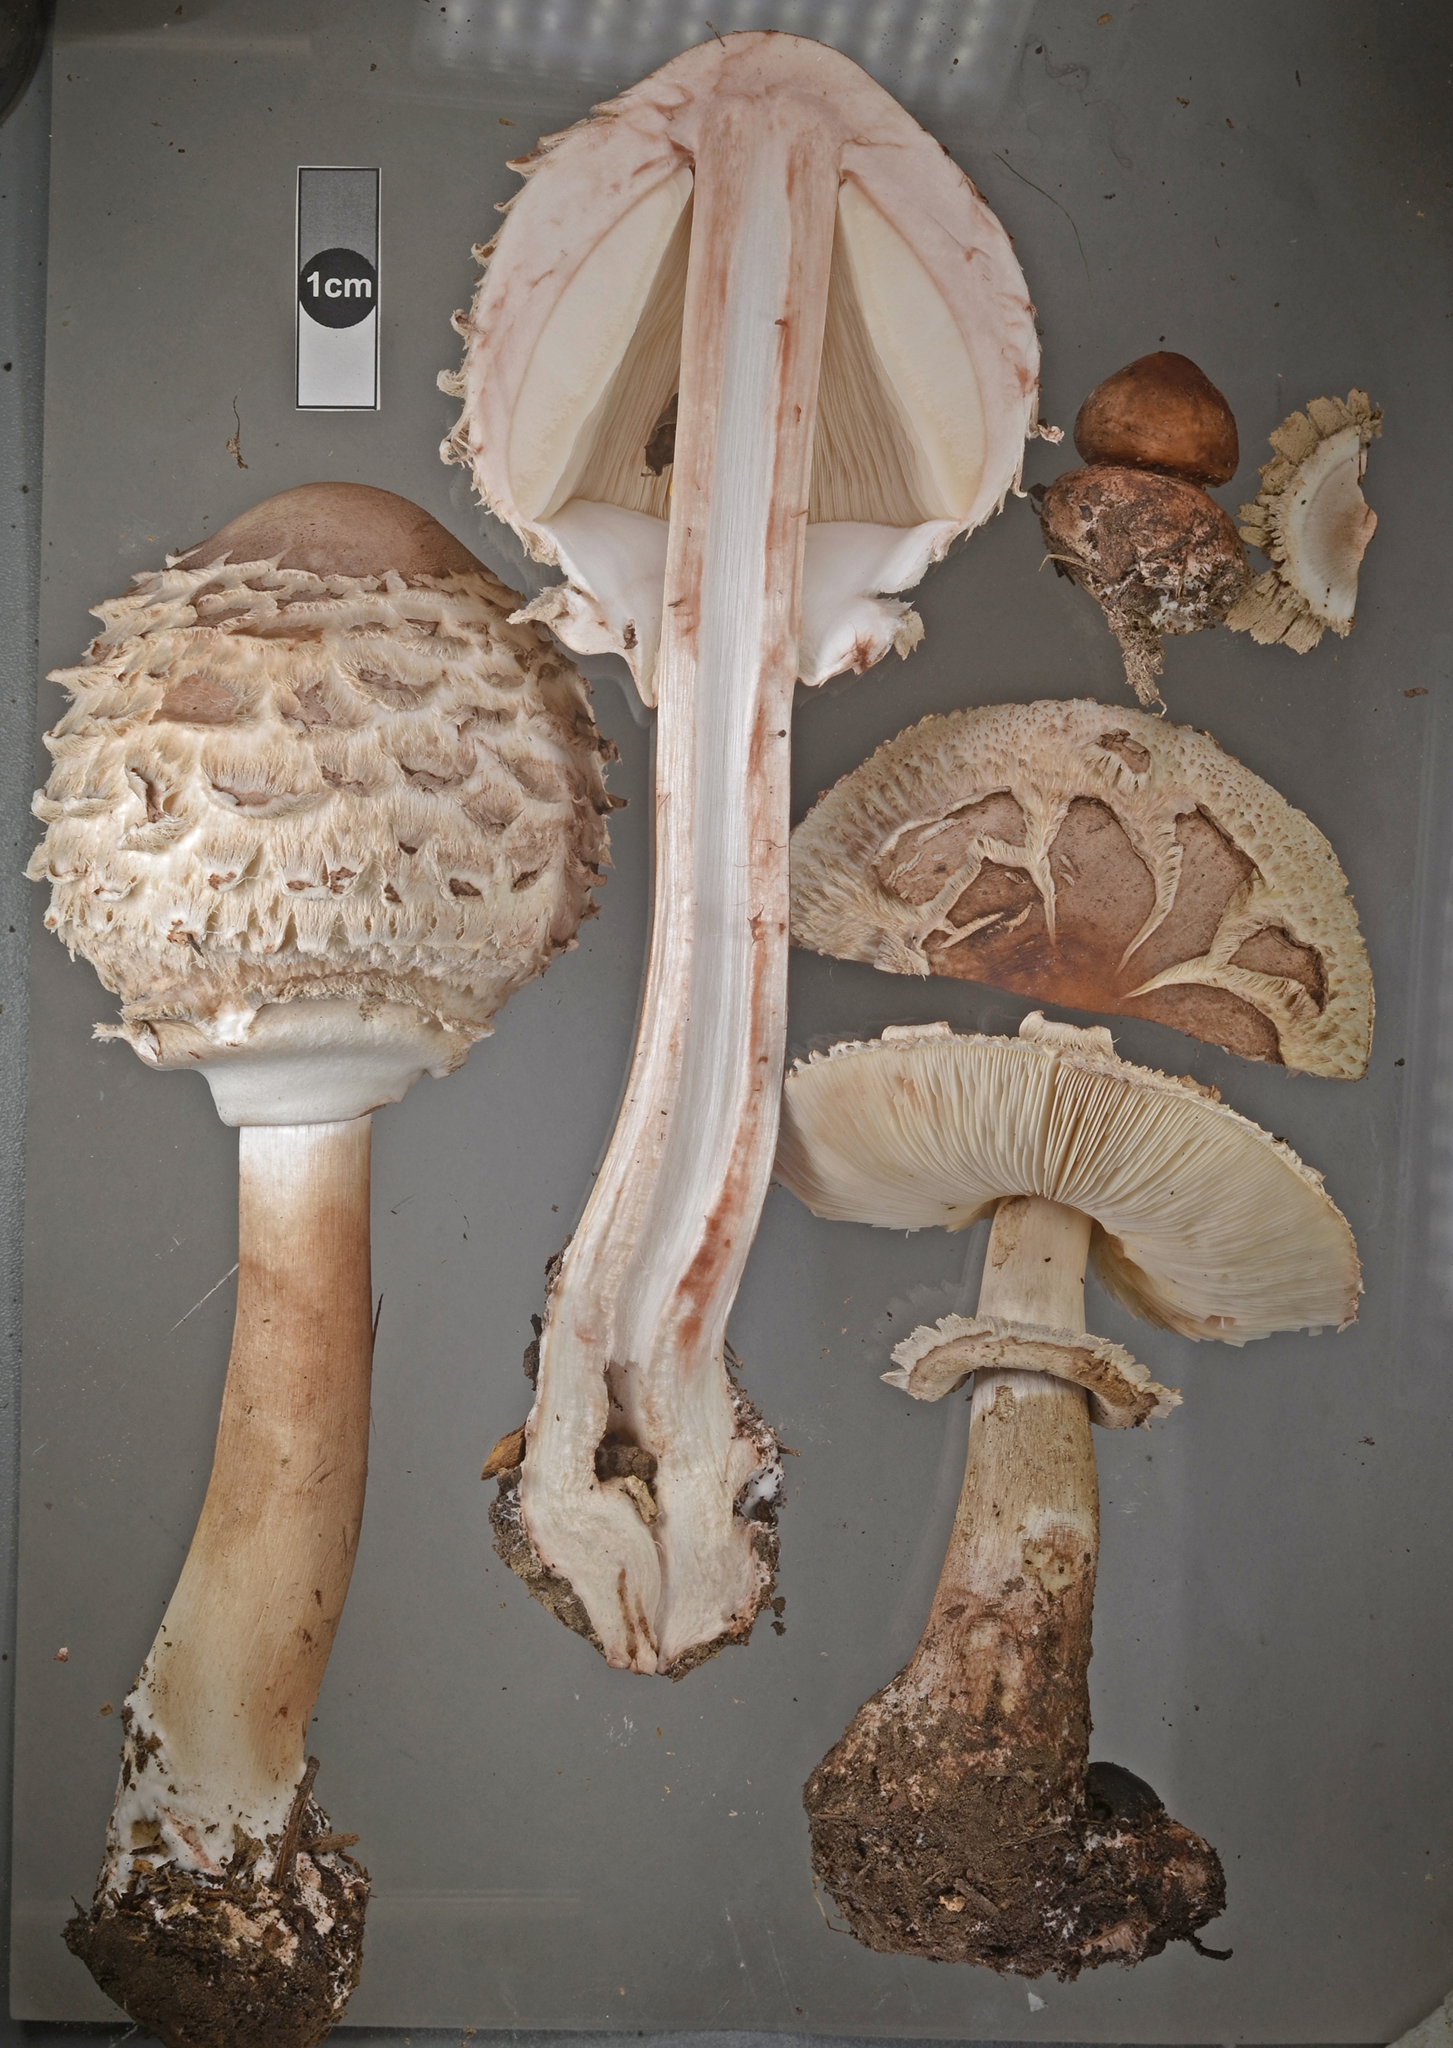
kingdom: Fungi
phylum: Basidiomycota
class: Agaricomycetes
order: Agaricales
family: Agaricaceae
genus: Chlorophyllum
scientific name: Chlorophyllum rhacodes
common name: Shaggy parasol
